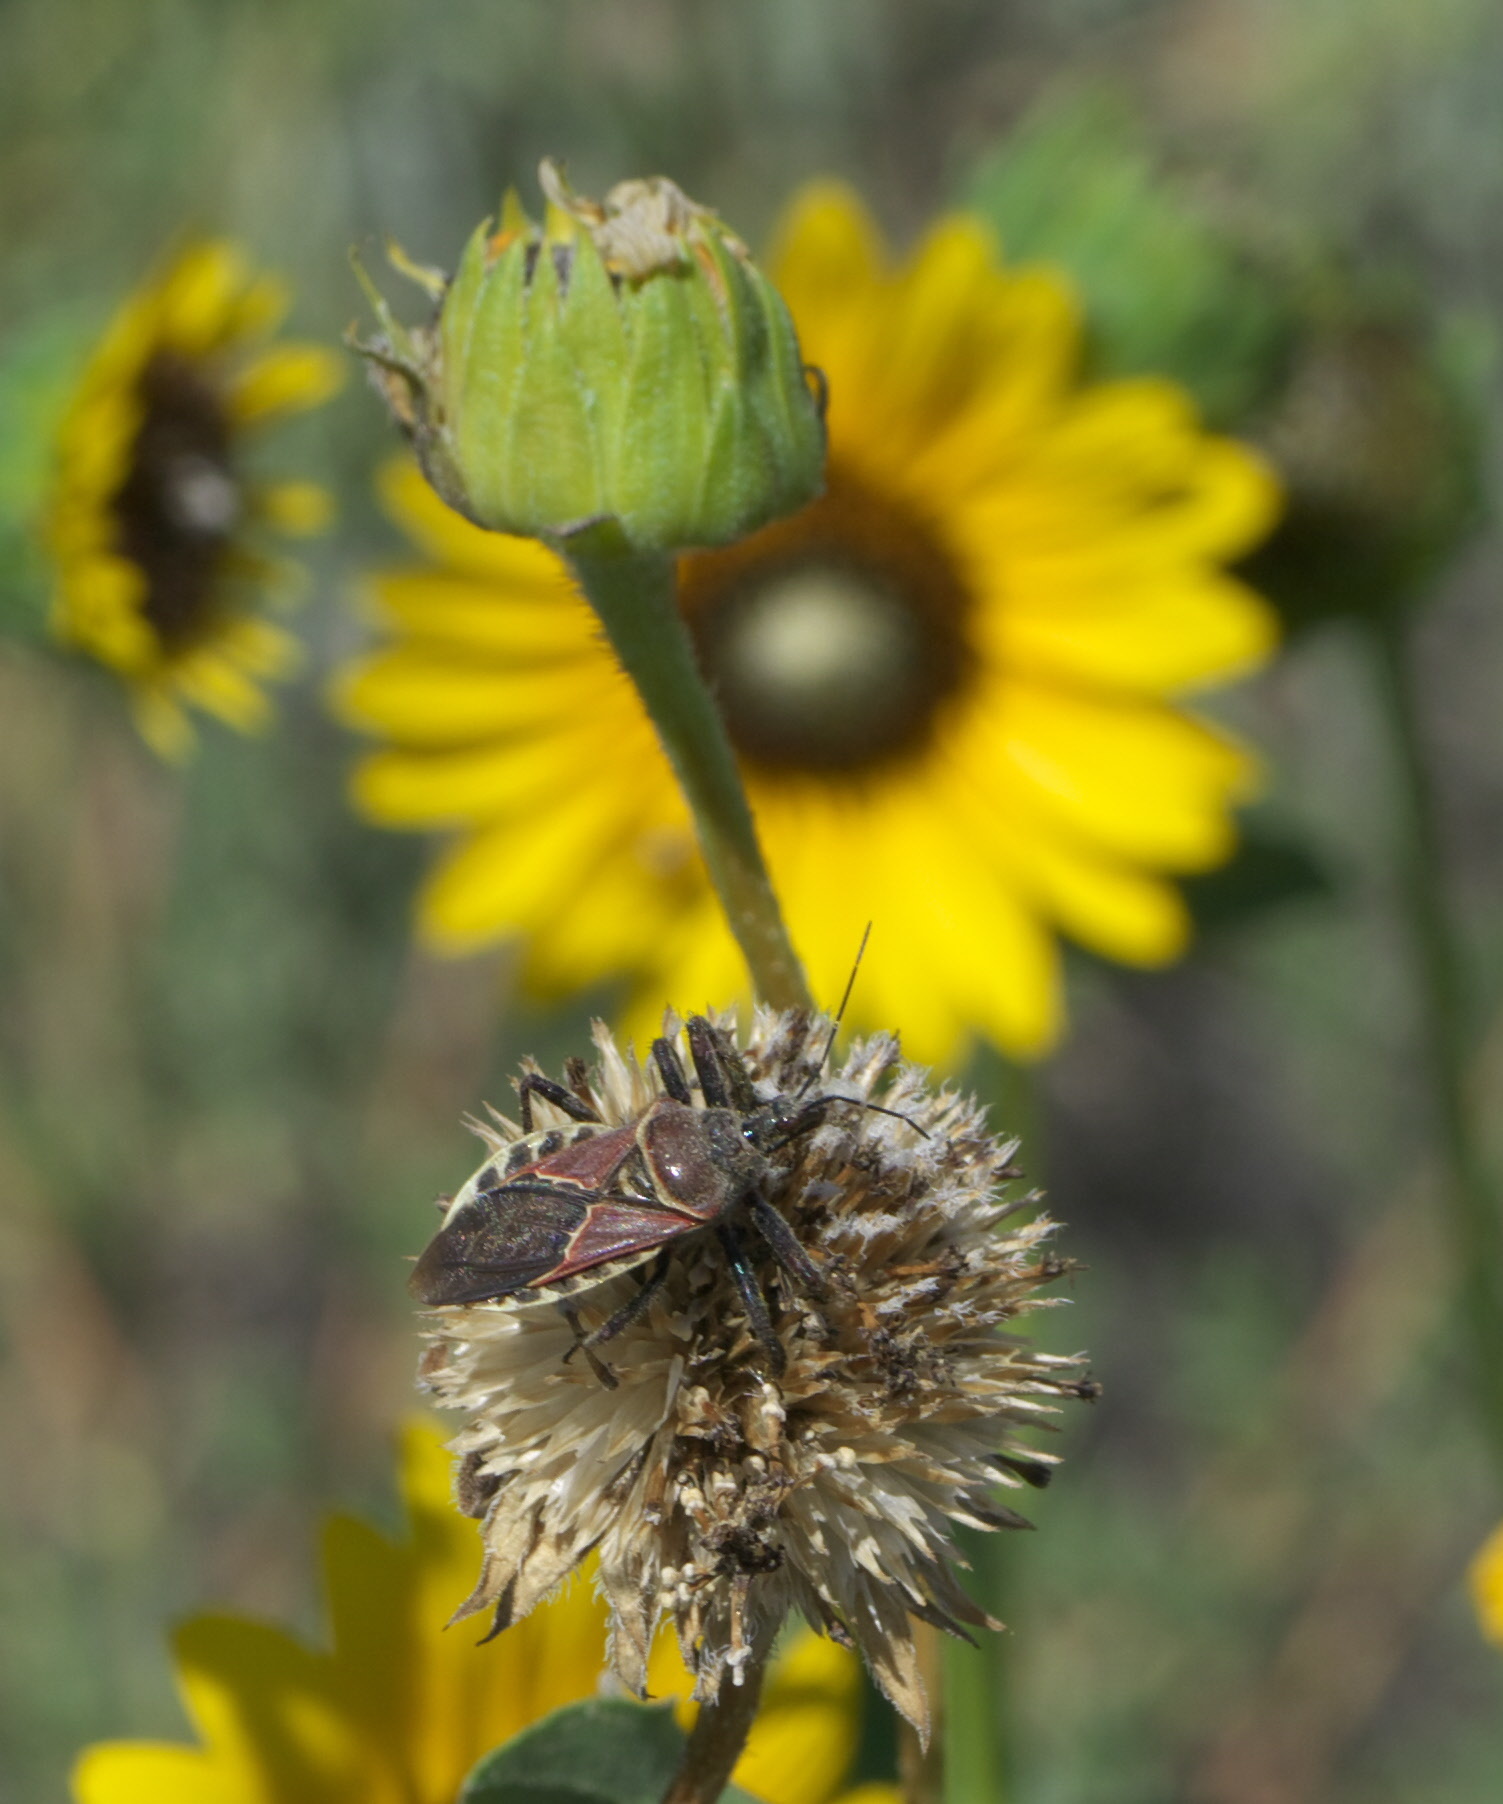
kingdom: Animalia
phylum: Arthropoda
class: Insecta
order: Hemiptera
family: Reduviidae
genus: Apiomerus
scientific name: Apiomerus spissipes
